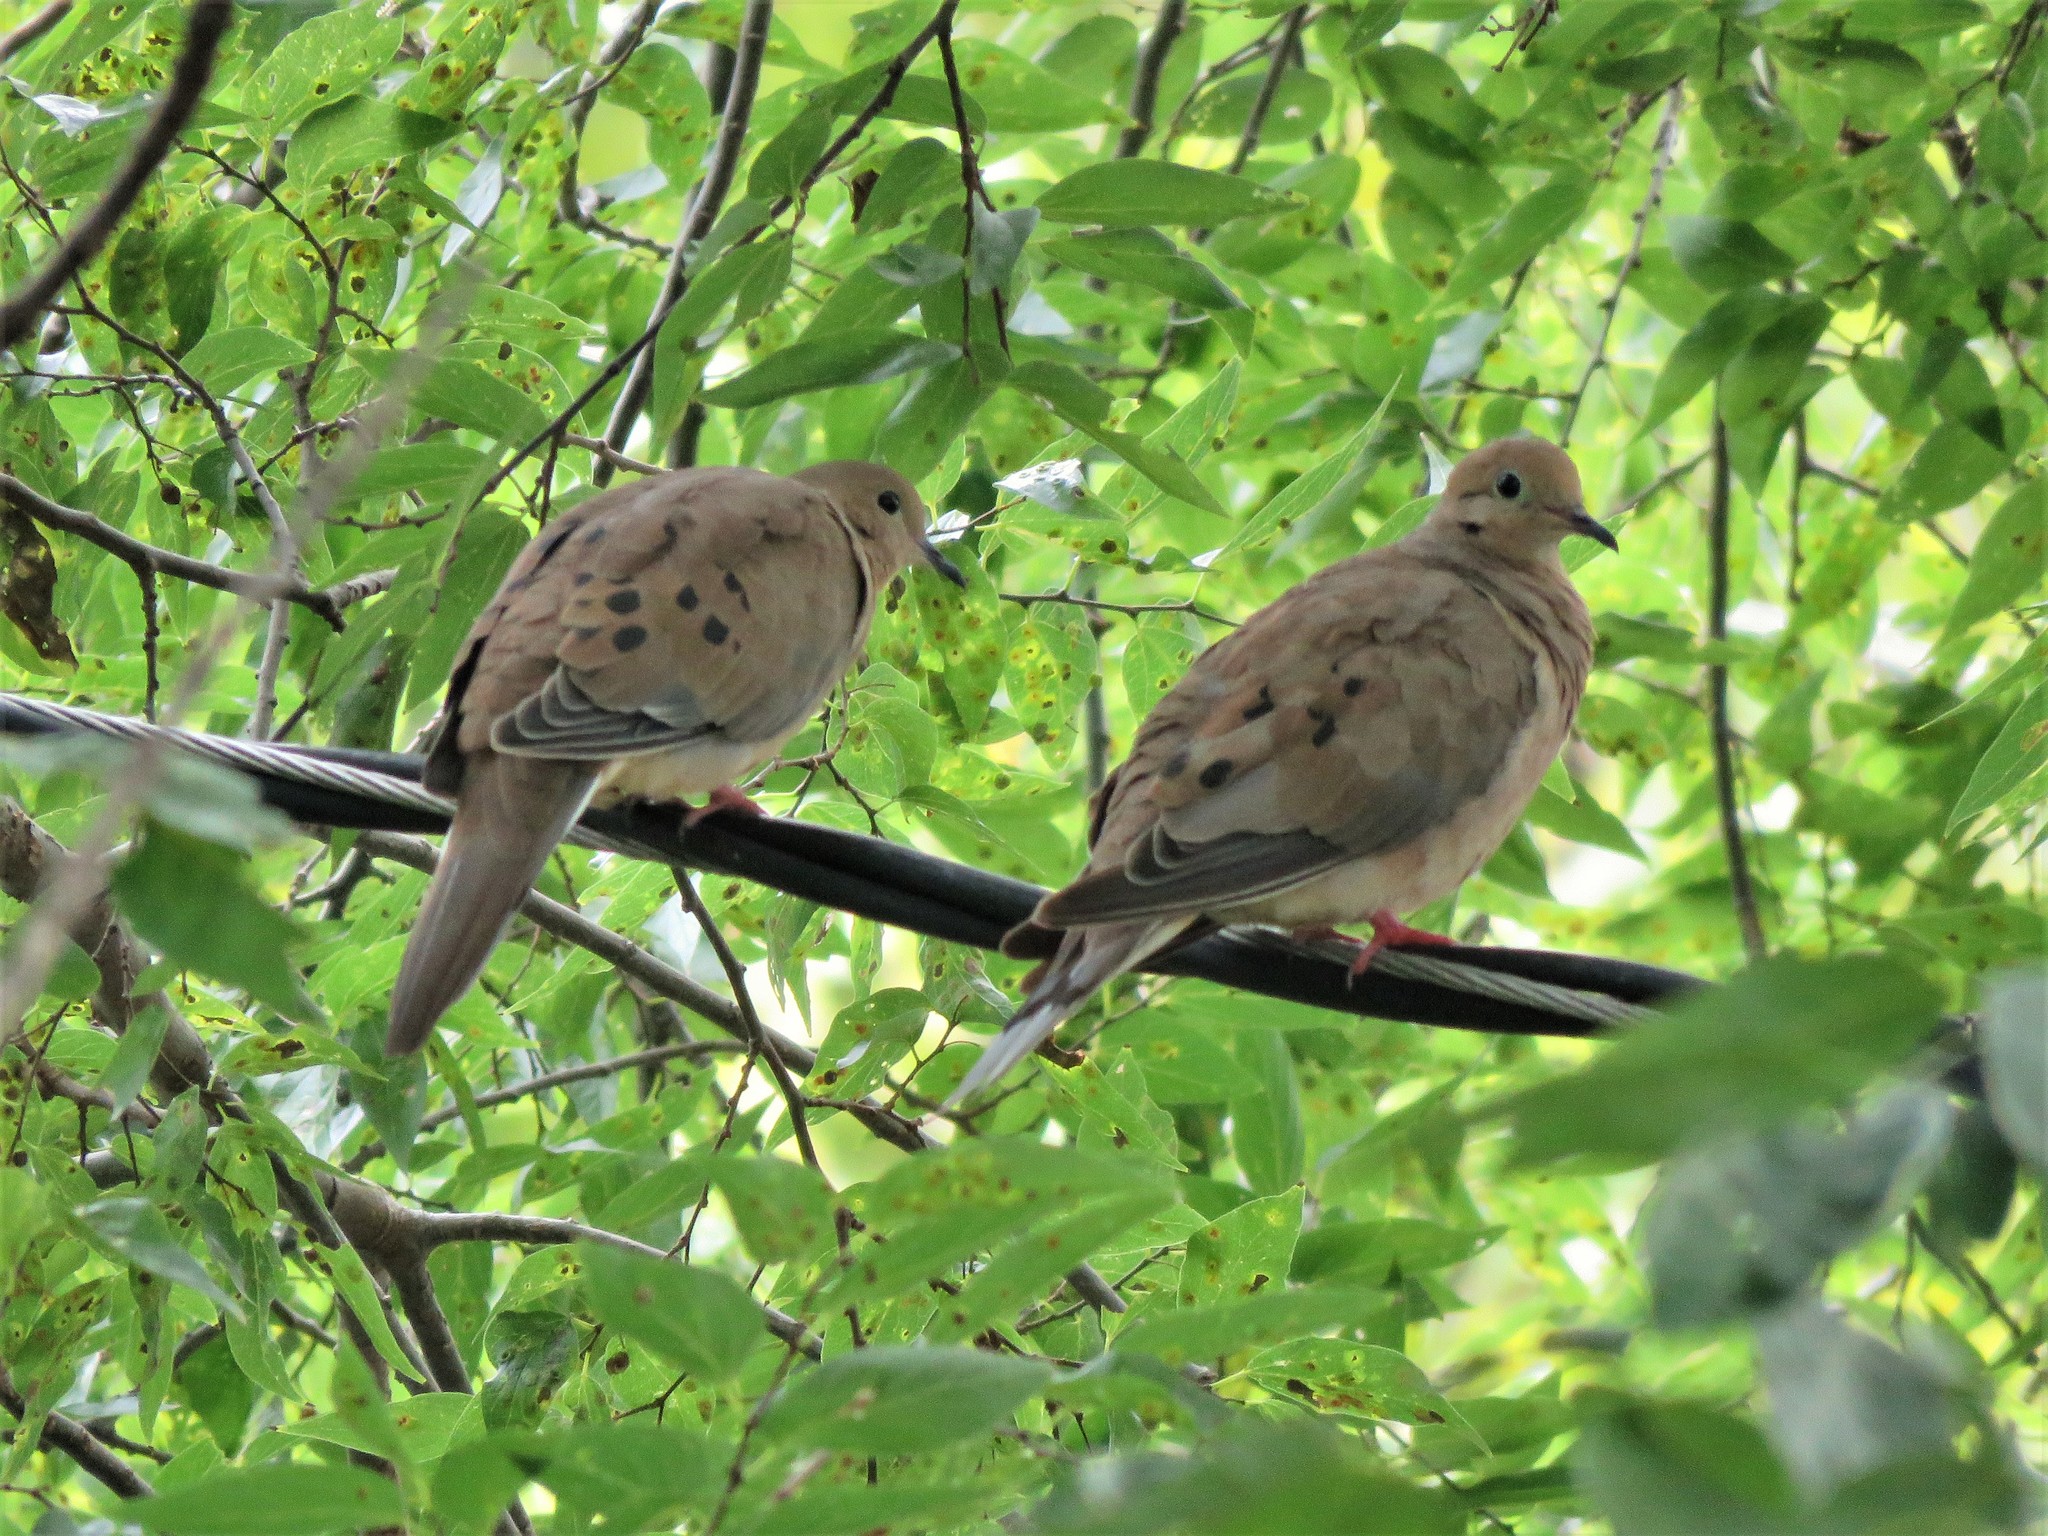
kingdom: Animalia
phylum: Chordata
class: Aves
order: Columbiformes
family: Columbidae
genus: Zenaida
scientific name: Zenaida macroura
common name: Mourning dove
